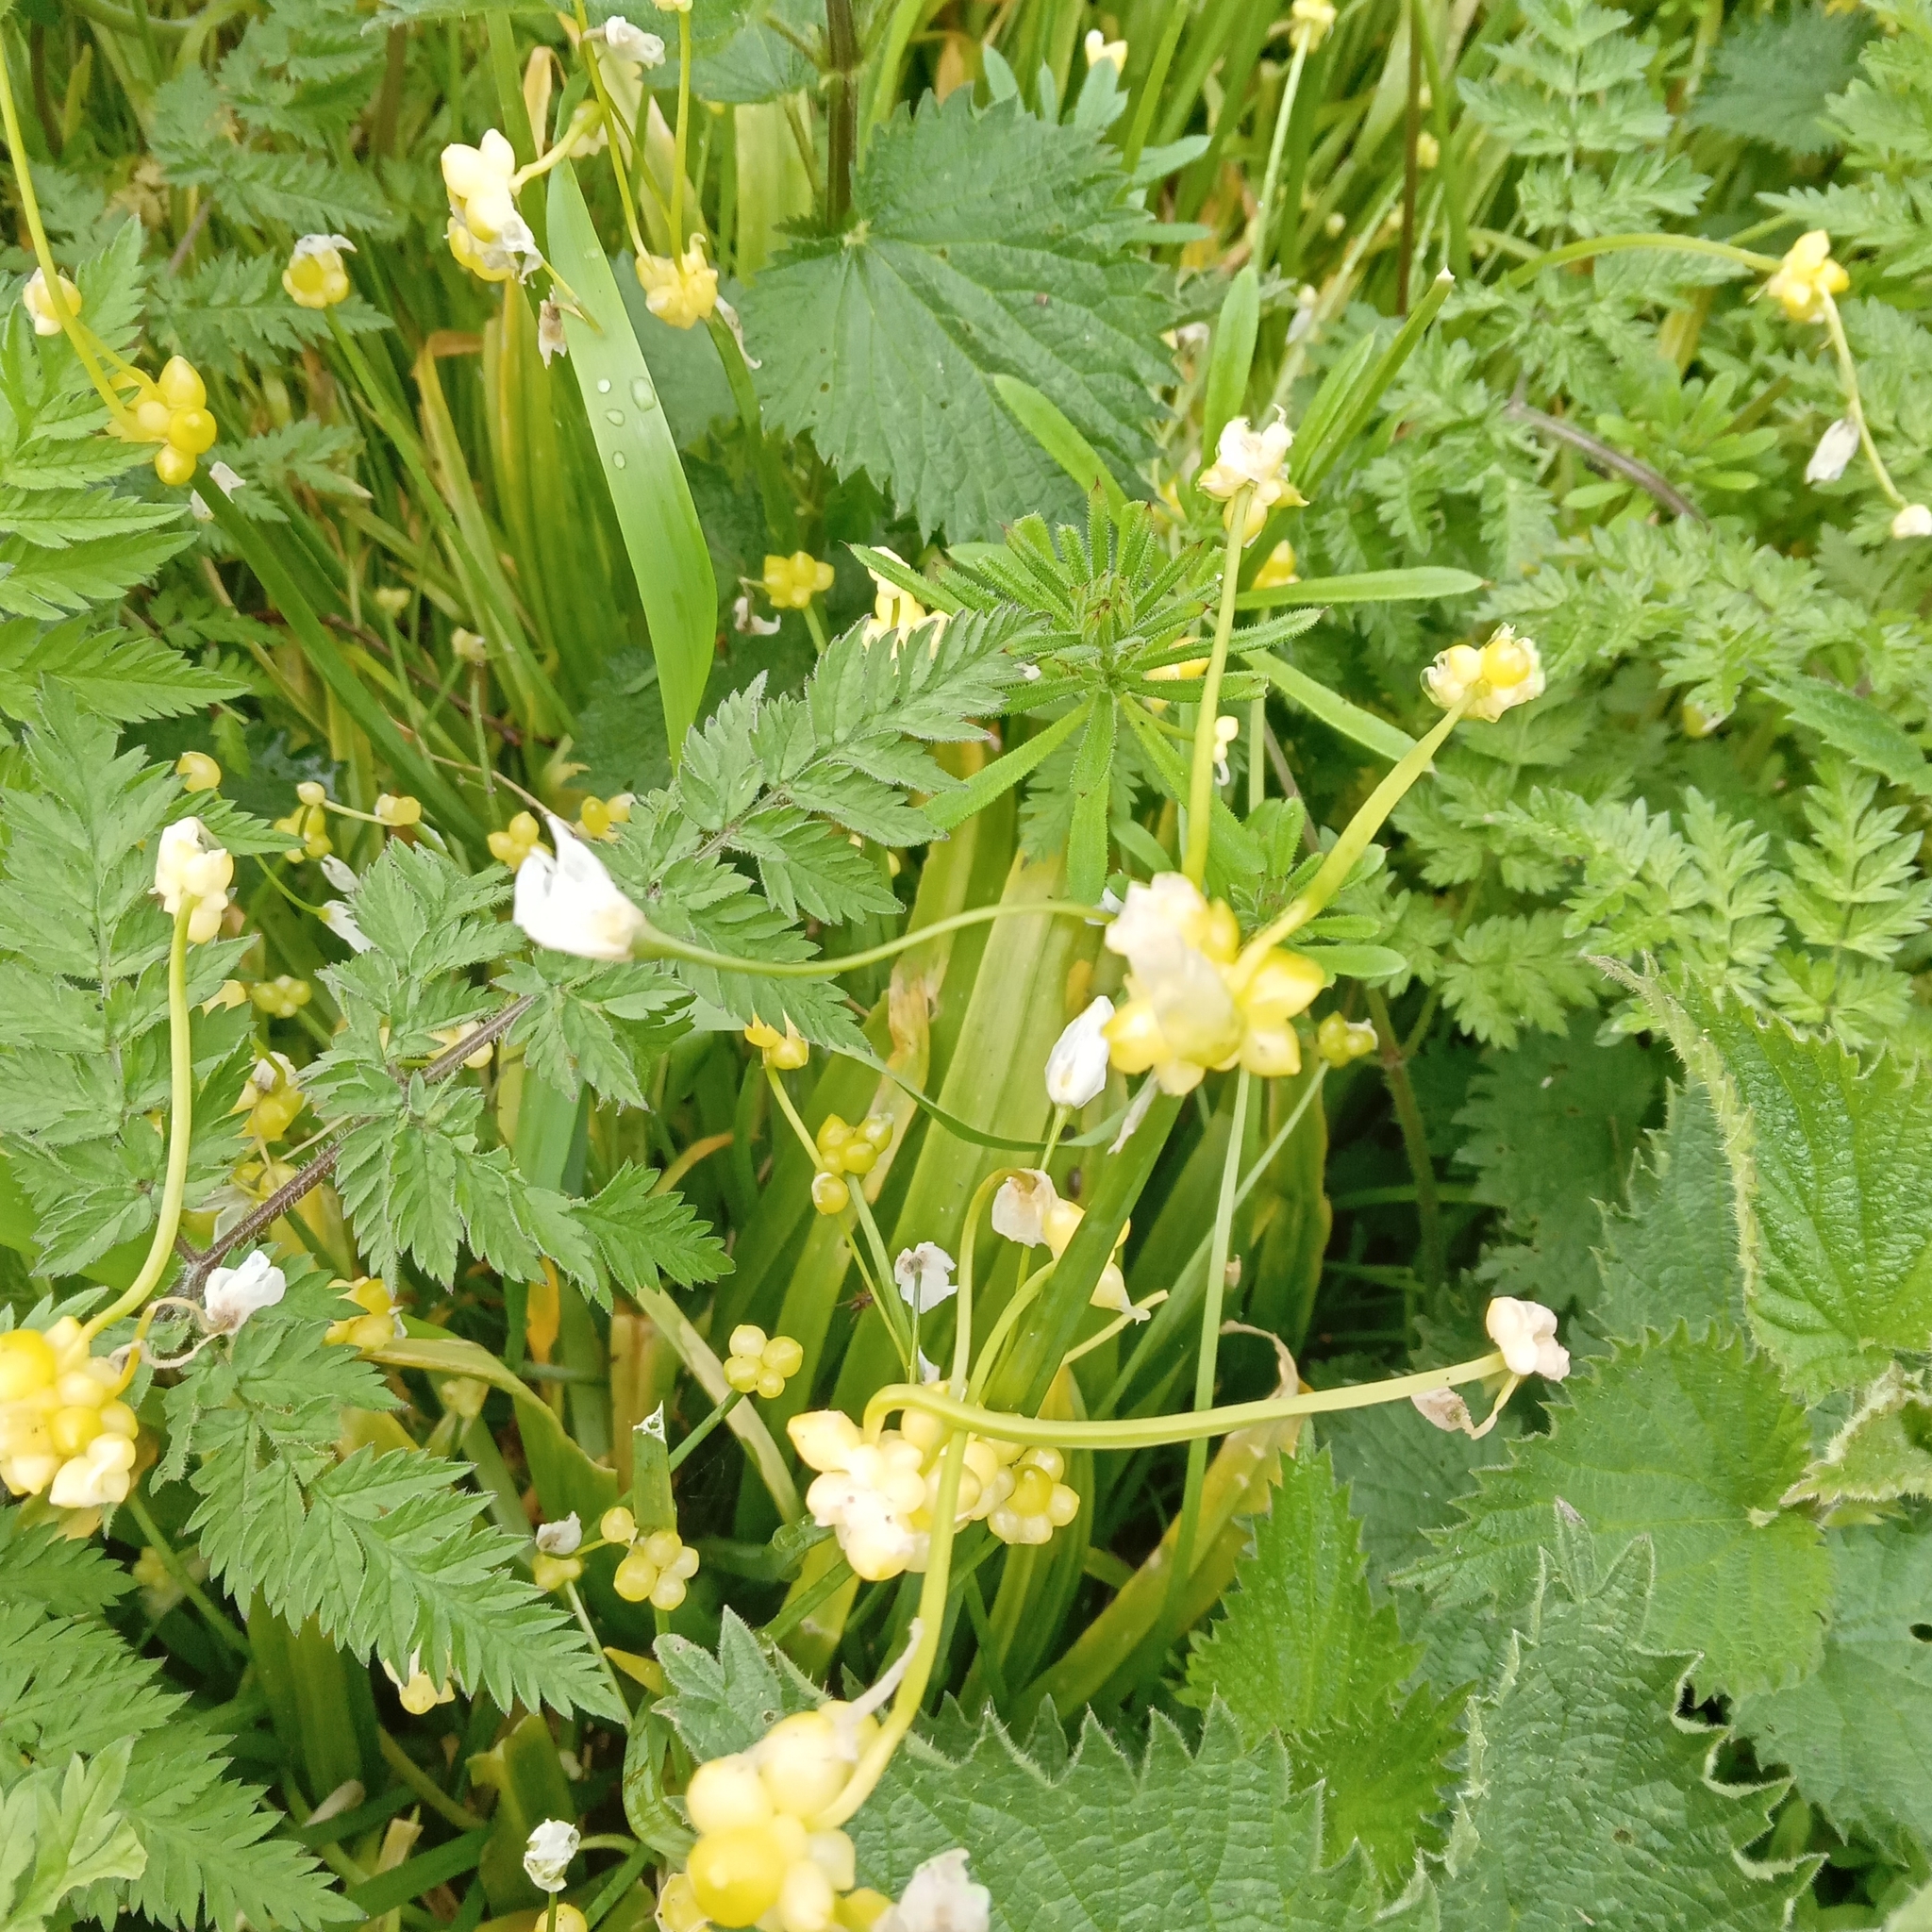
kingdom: Plantae
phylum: Tracheophyta
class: Liliopsida
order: Asparagales
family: Amaryllidaceae
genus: Allium
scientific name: Allium paradoxum
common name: Few-flowered garlic
